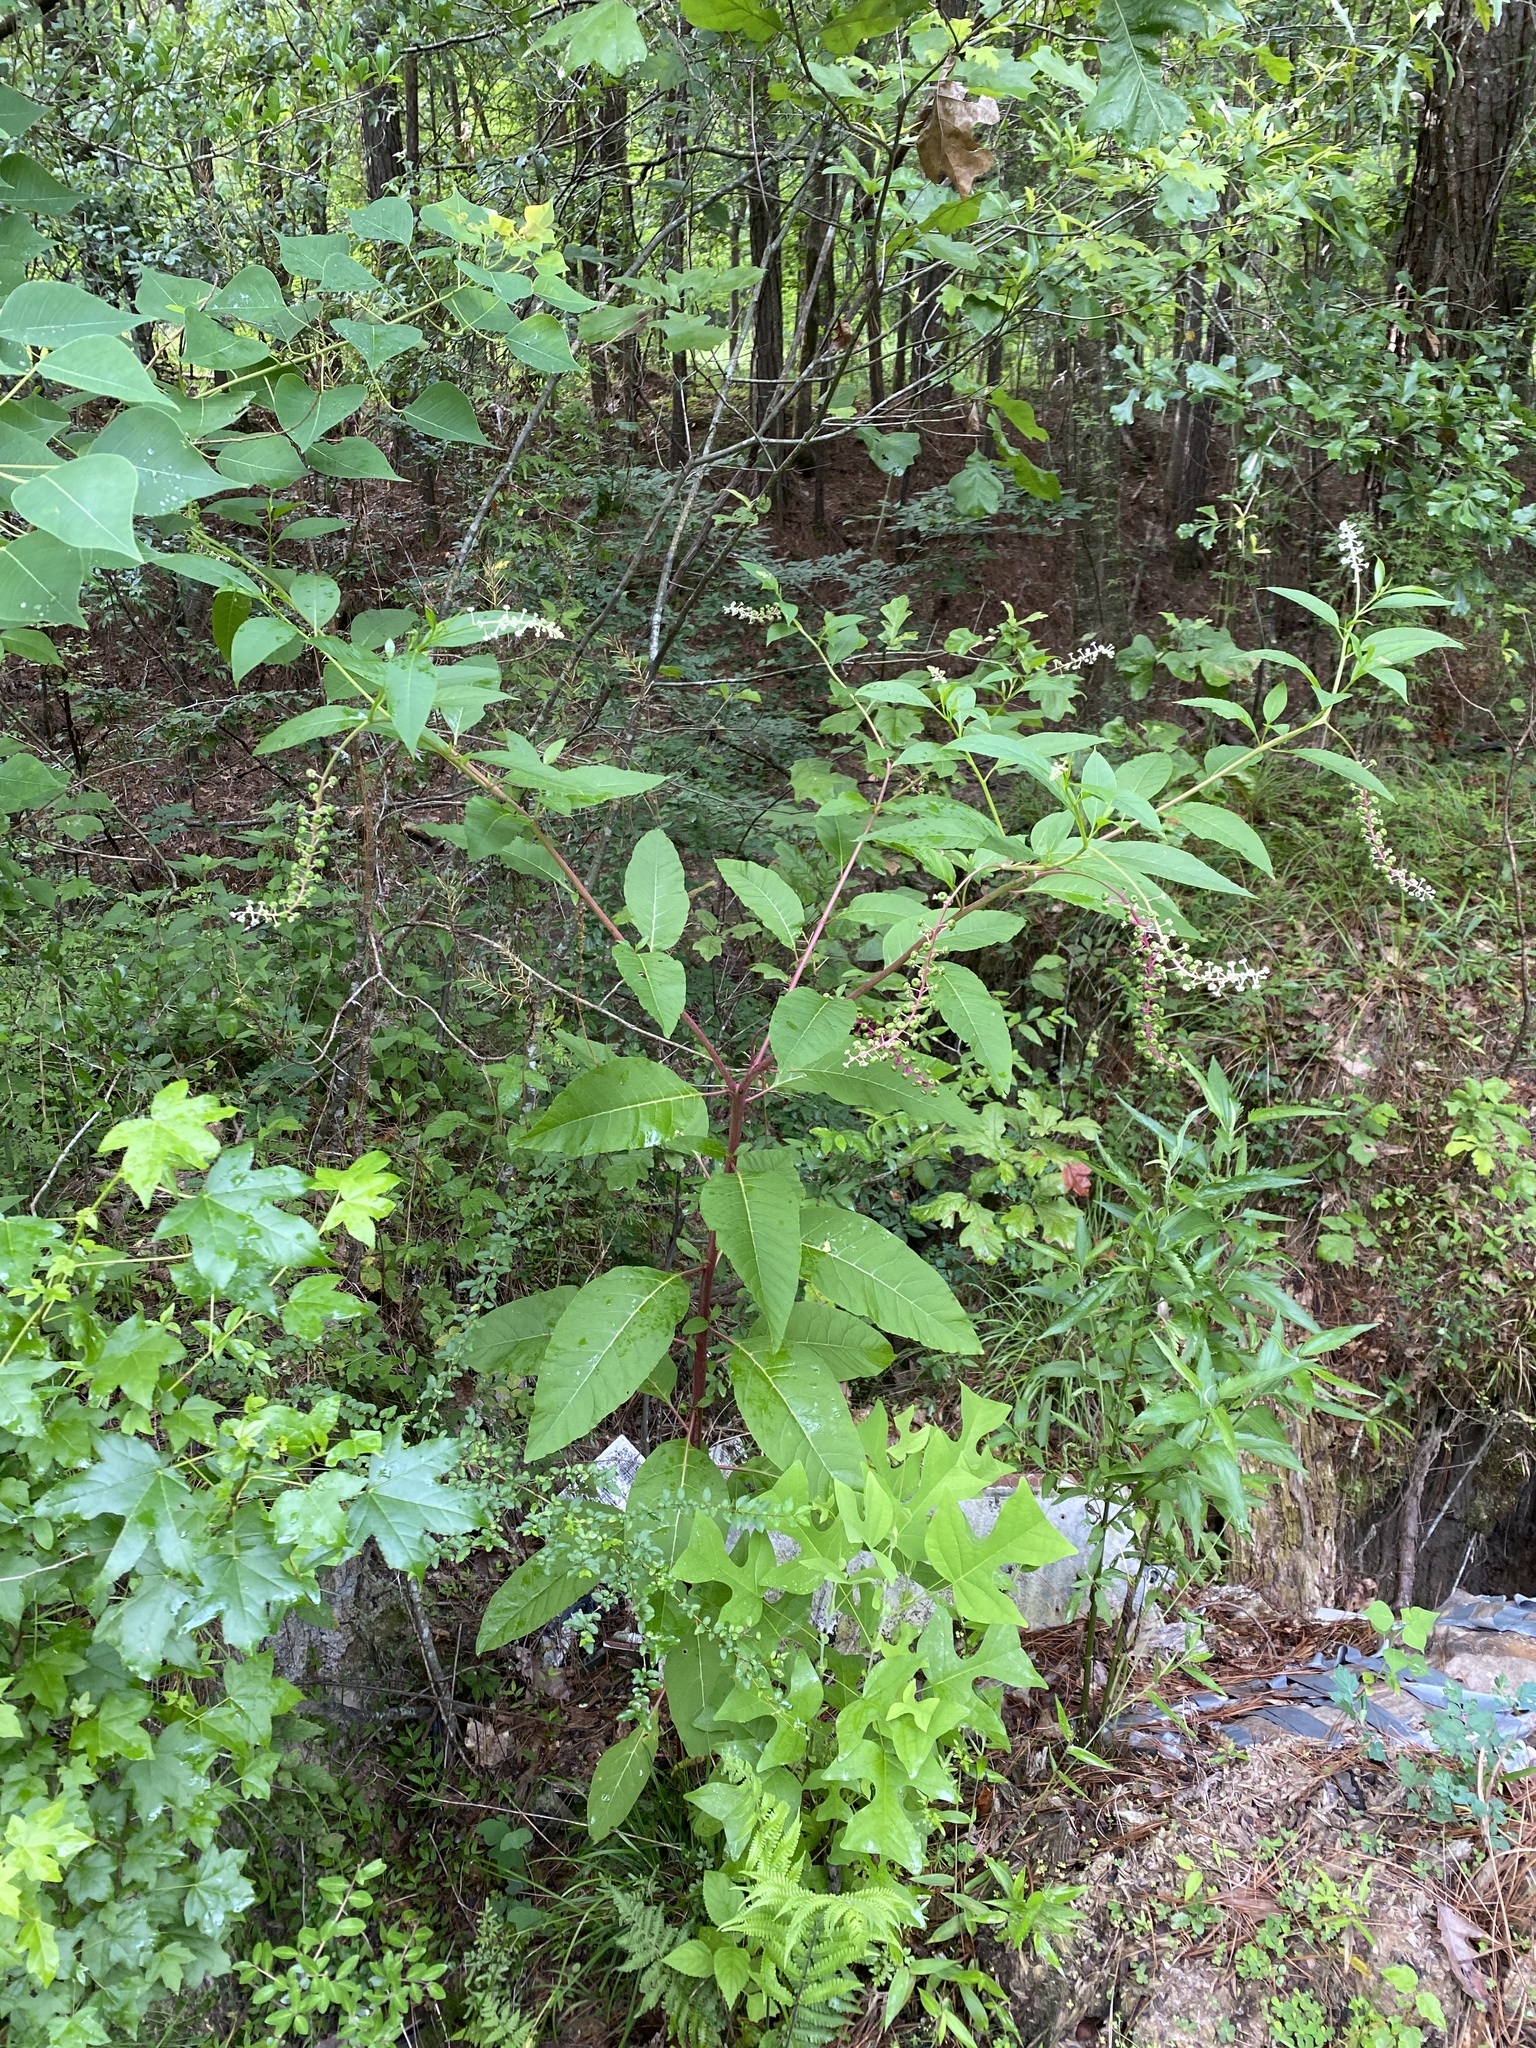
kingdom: Plantae
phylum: Tracheophyta
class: Magnoliopsida
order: Caryophyllales
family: Phytolaccaceae
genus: Phytolacca
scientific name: Phytolacca americana
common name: American pokeweed
